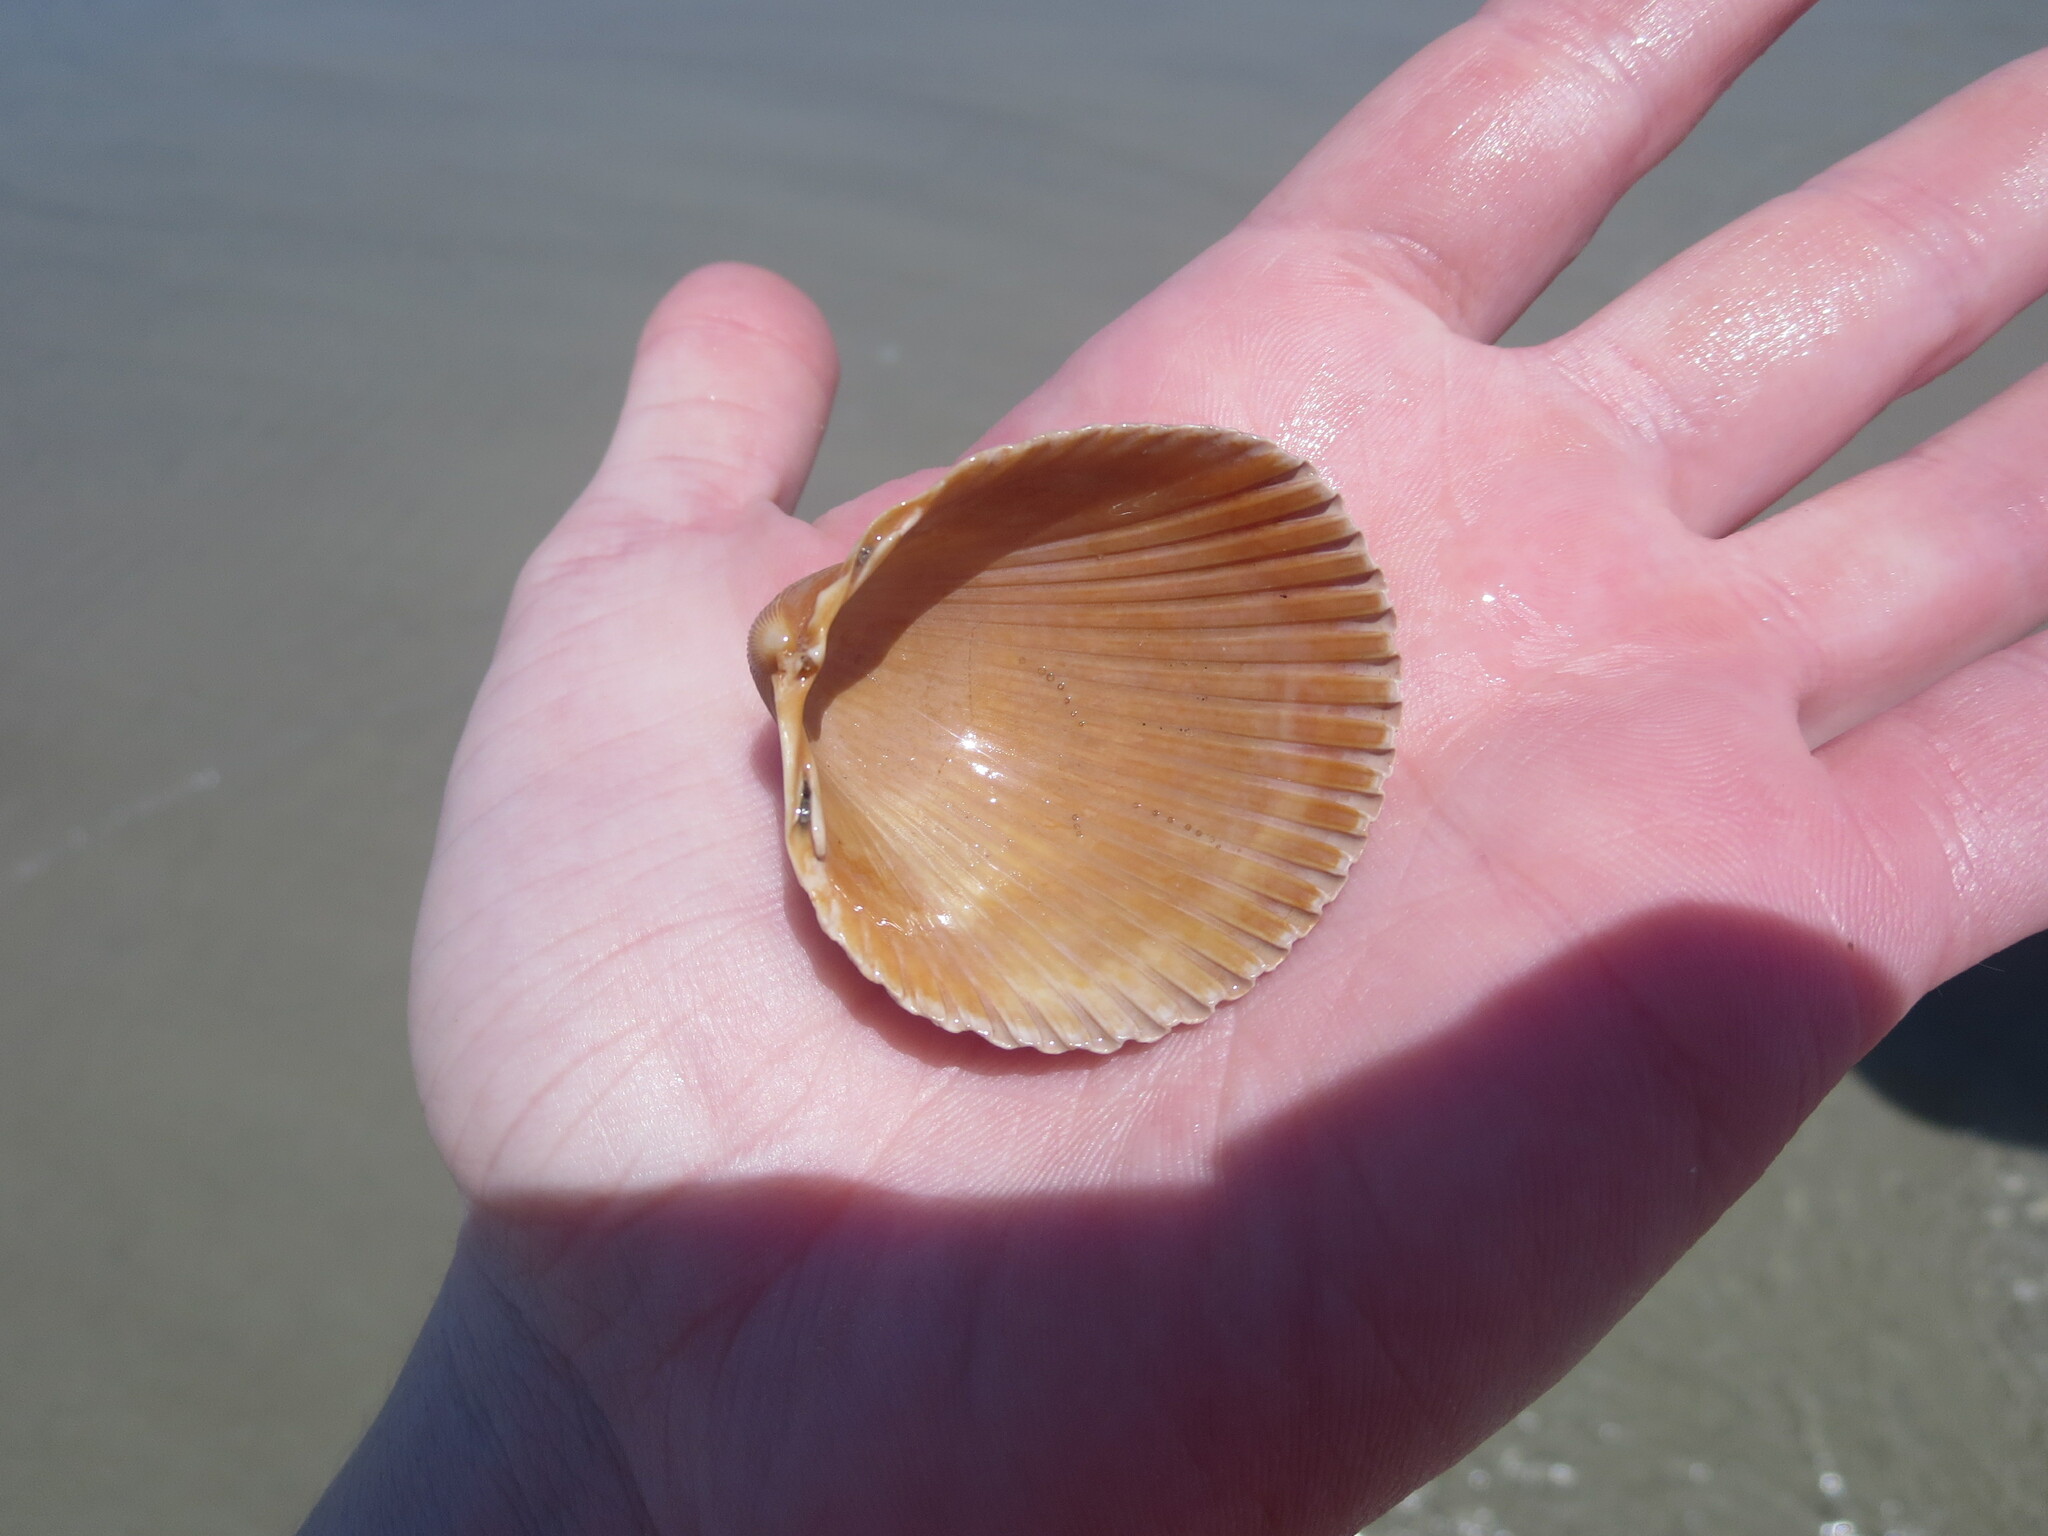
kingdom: Animalia
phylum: Mollusca
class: Bivalvia
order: Cardiida
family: Cardiidae
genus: Dinocardium
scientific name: Dinocardium robustum
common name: Atlantic giant cockle
